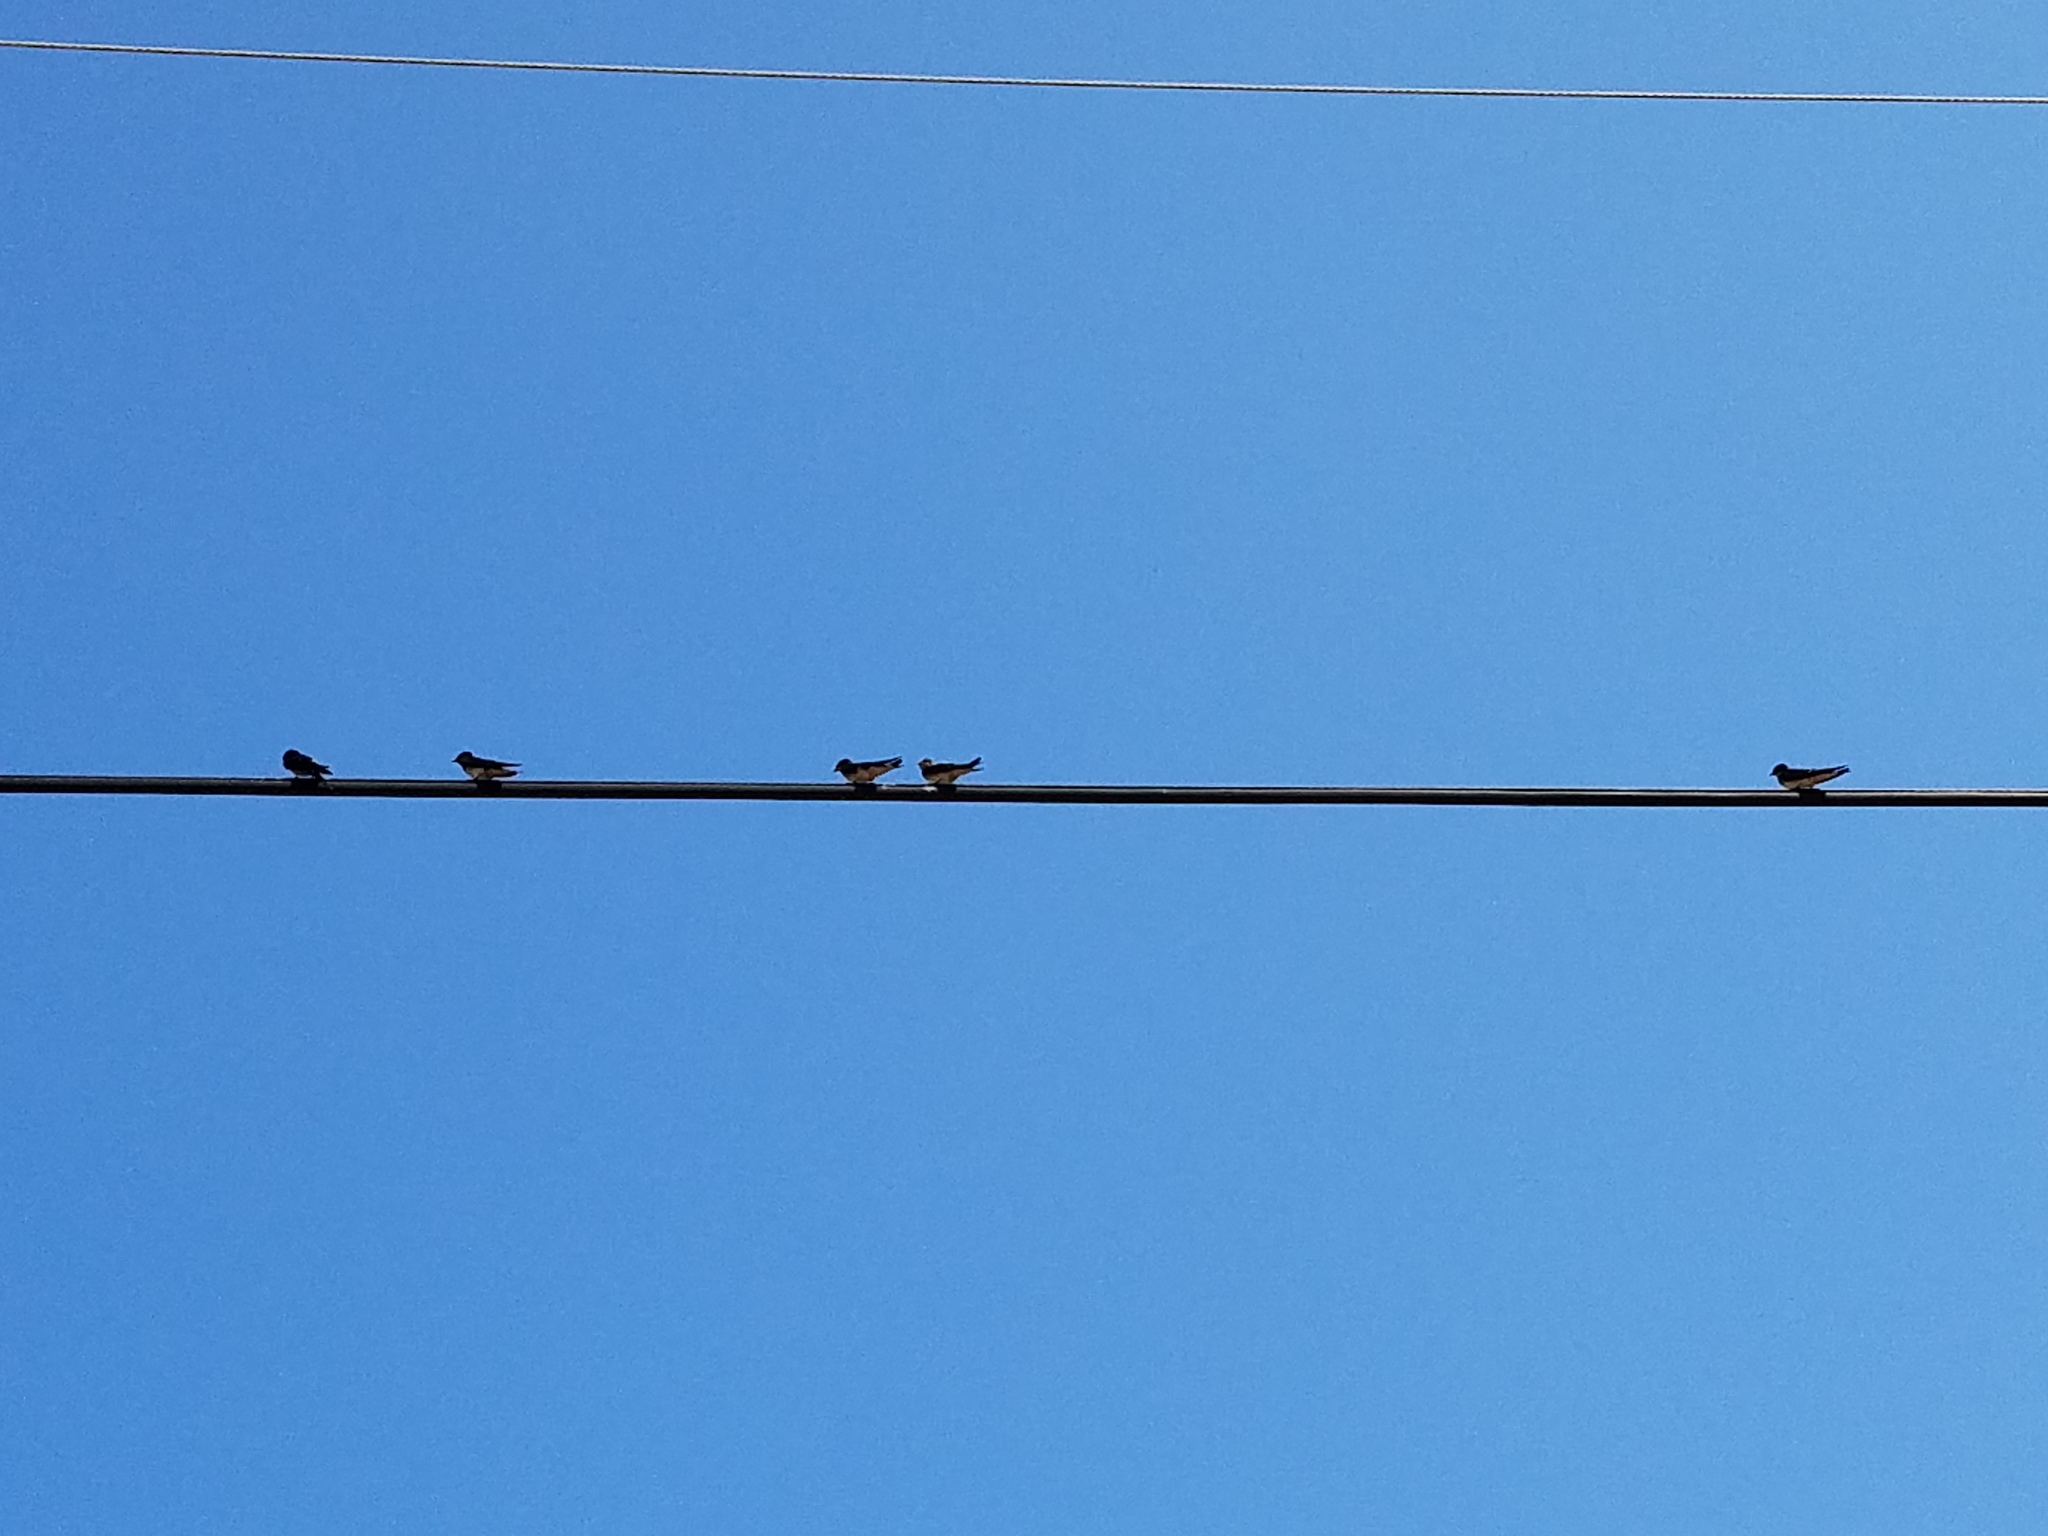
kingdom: Animalia
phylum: Chordata
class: Aves
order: Passeriformes
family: Hirundinidae
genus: Hirundo
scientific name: Hirundo rustica
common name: Barn swallow
